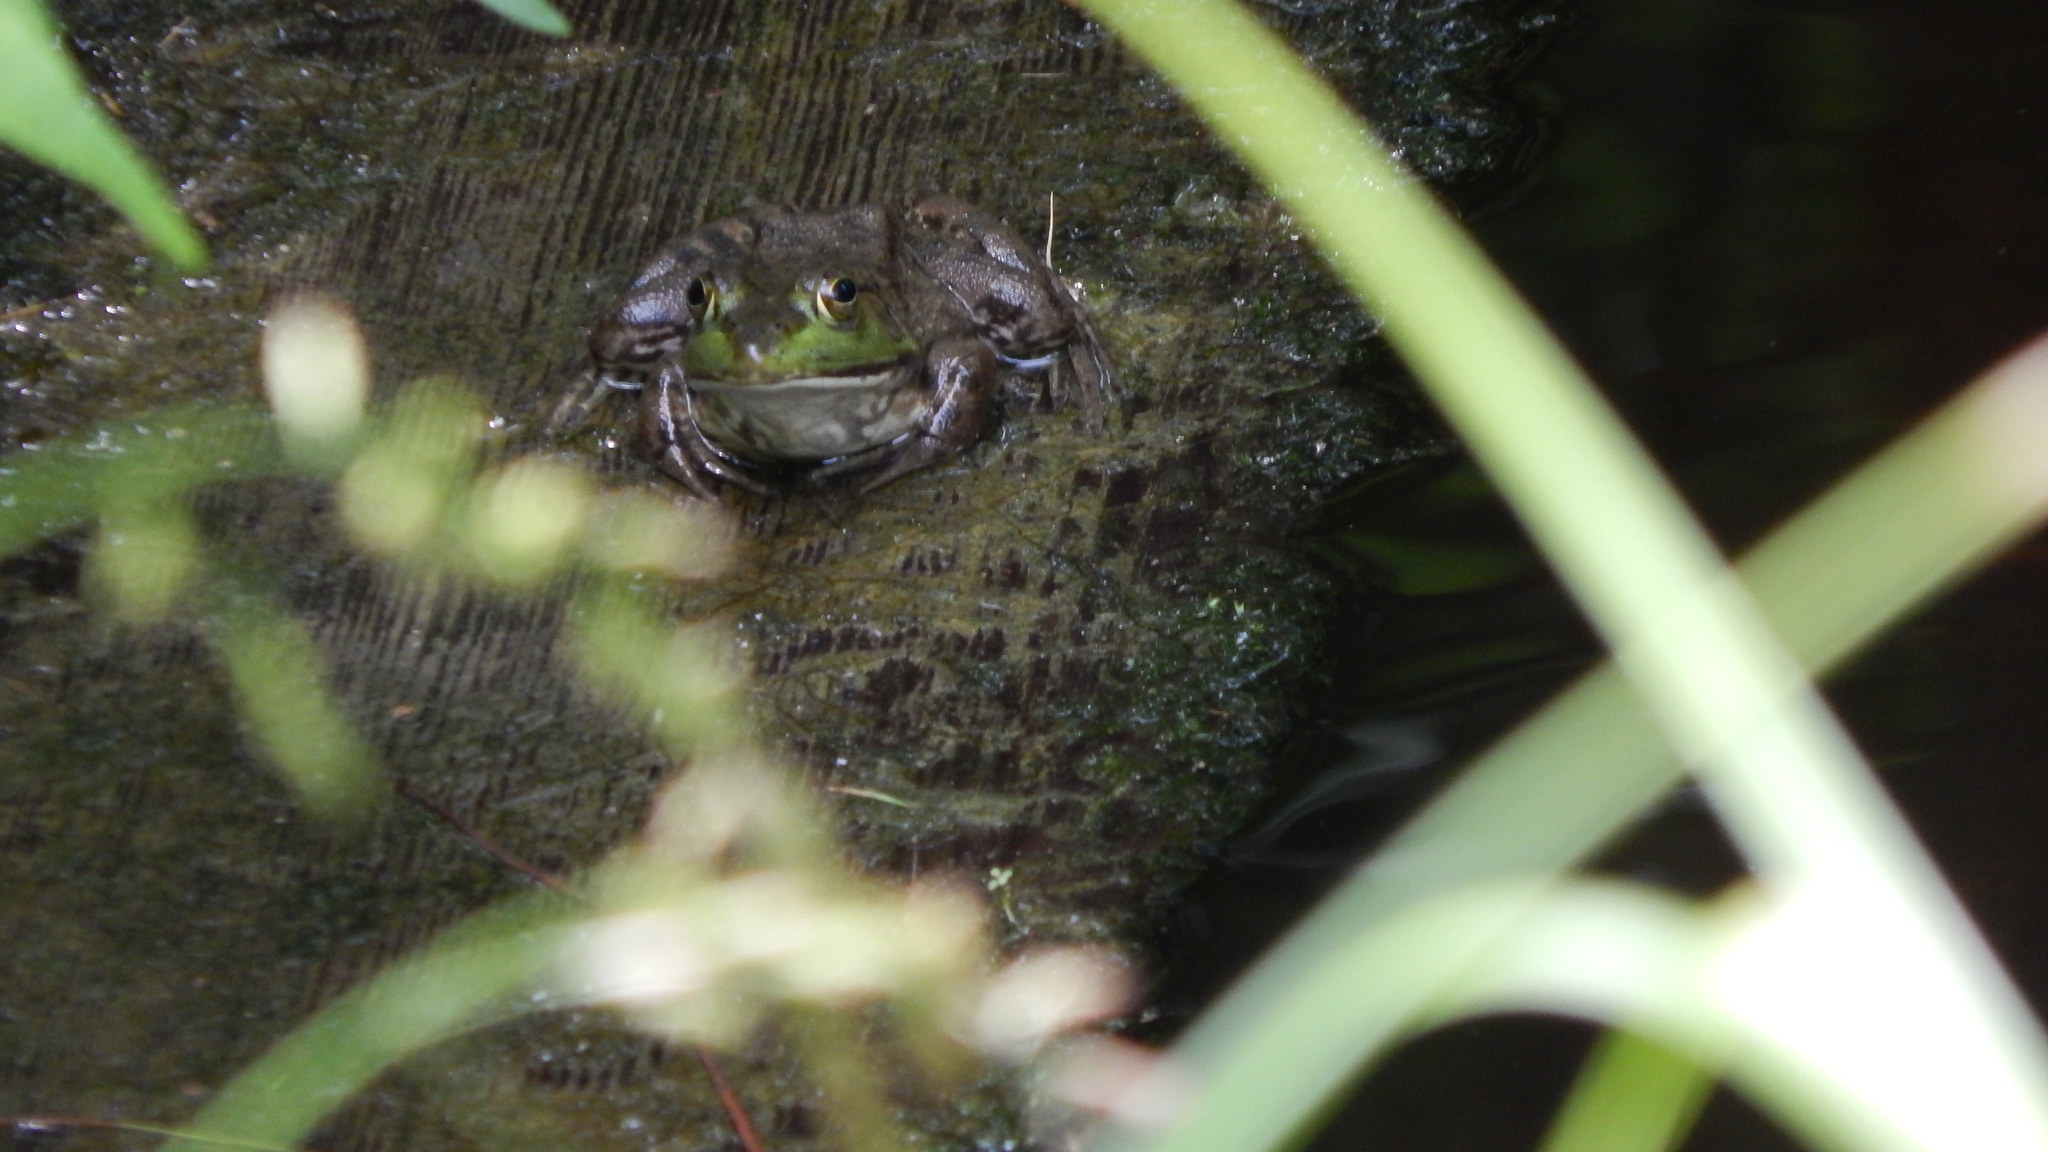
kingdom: Animalia
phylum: Chordata
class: Amphibia
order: Anura
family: Ranidae
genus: Lithobates
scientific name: Lithobates catesbeianus
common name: American bullfrog
